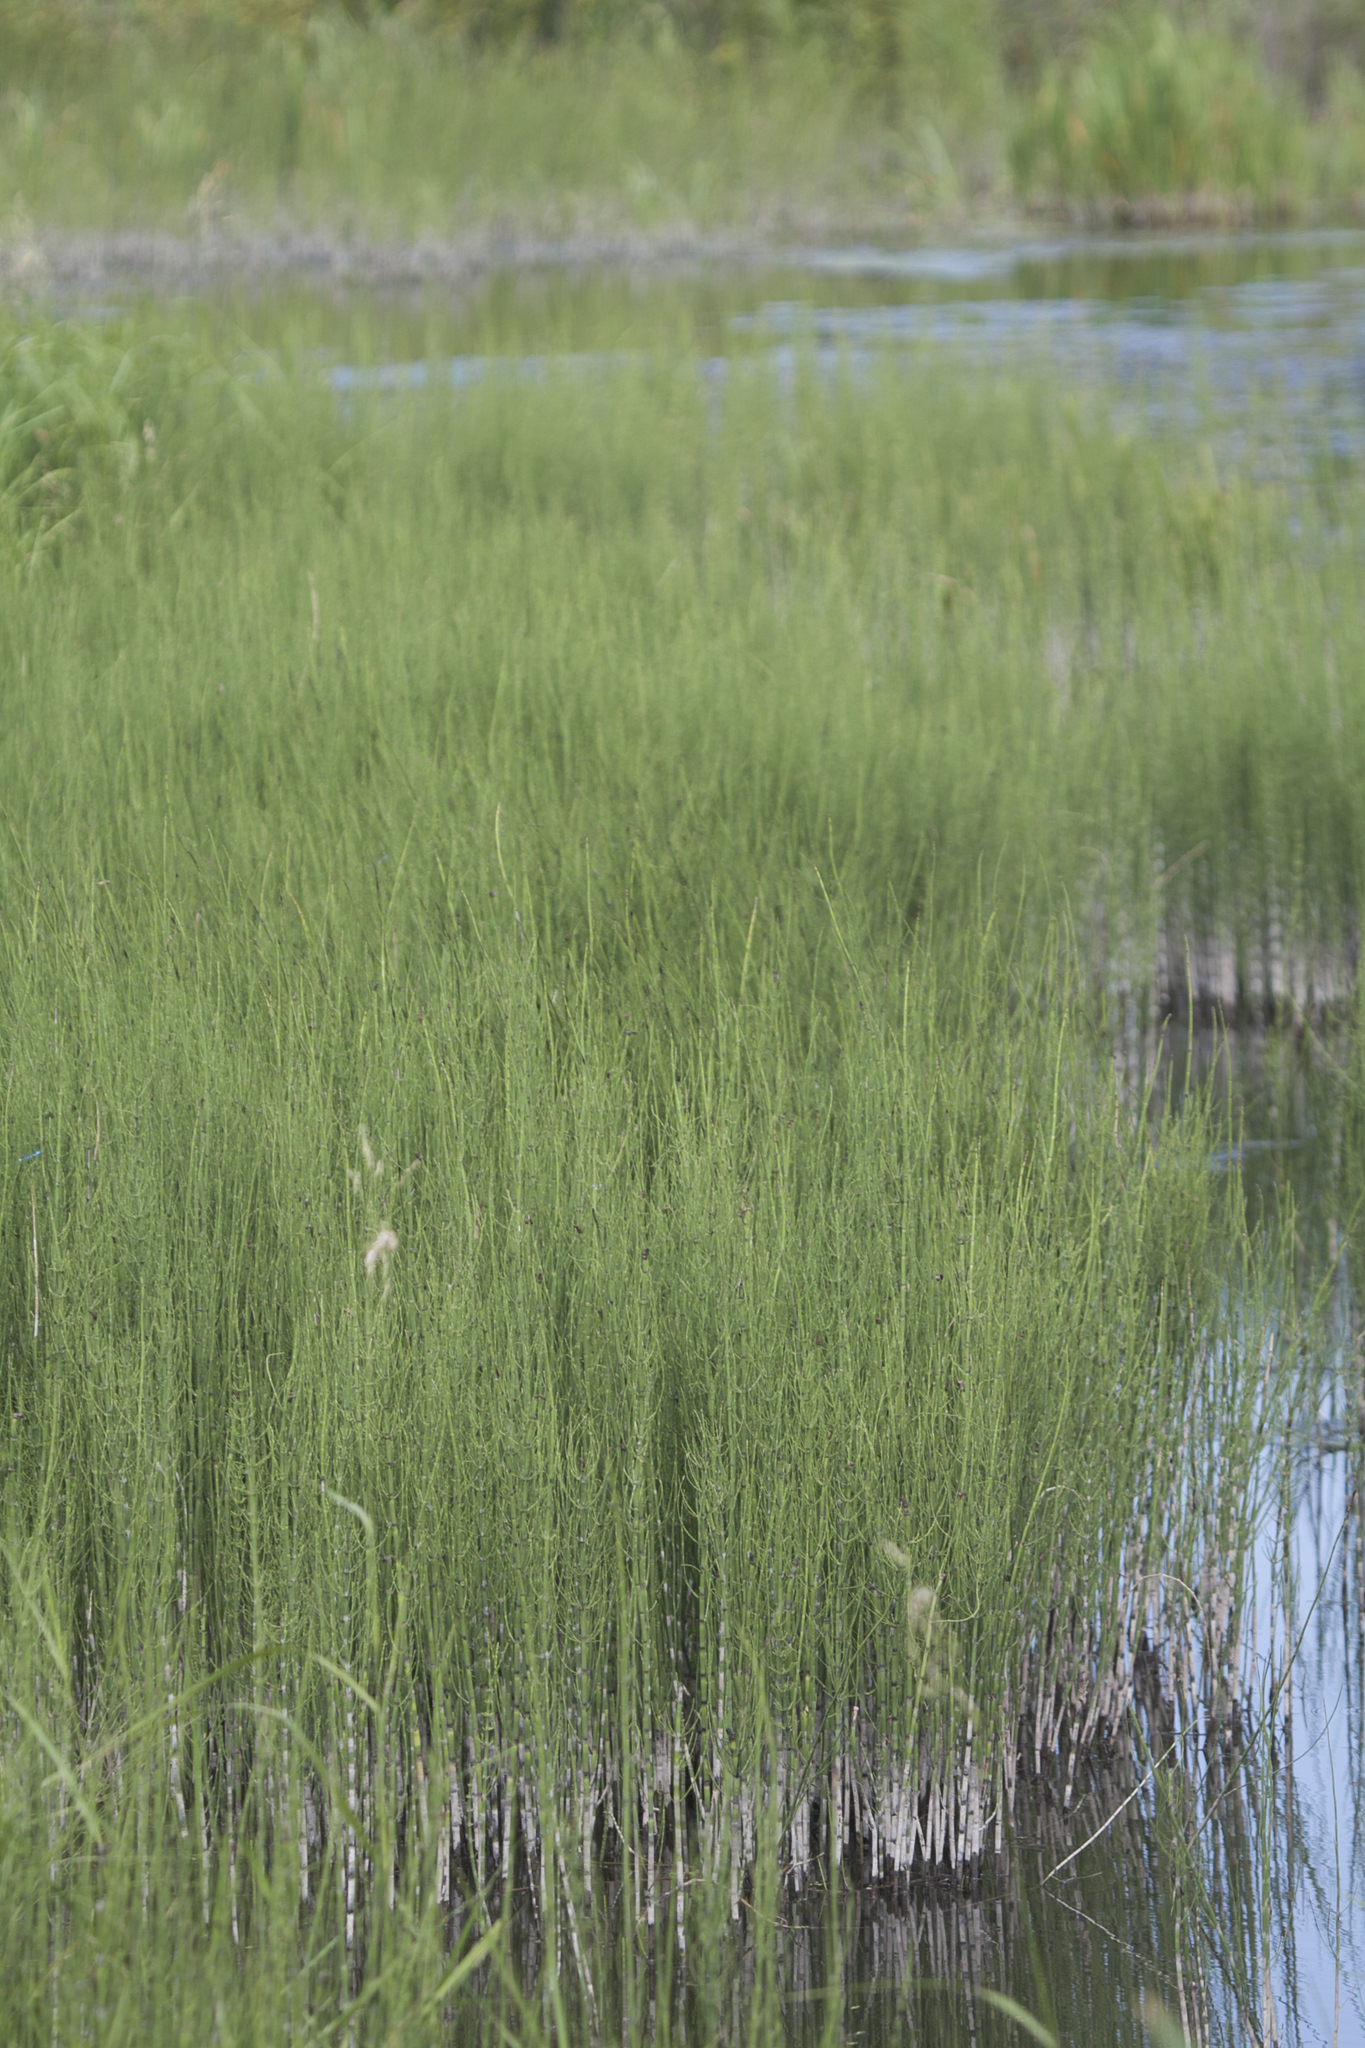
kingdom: Plantae
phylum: Tracheophyta
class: Polypodiopsida
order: Equisetales
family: Equisetaceae
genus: Equisetum
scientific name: Equisetum fluviatile
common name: Water horsetail
